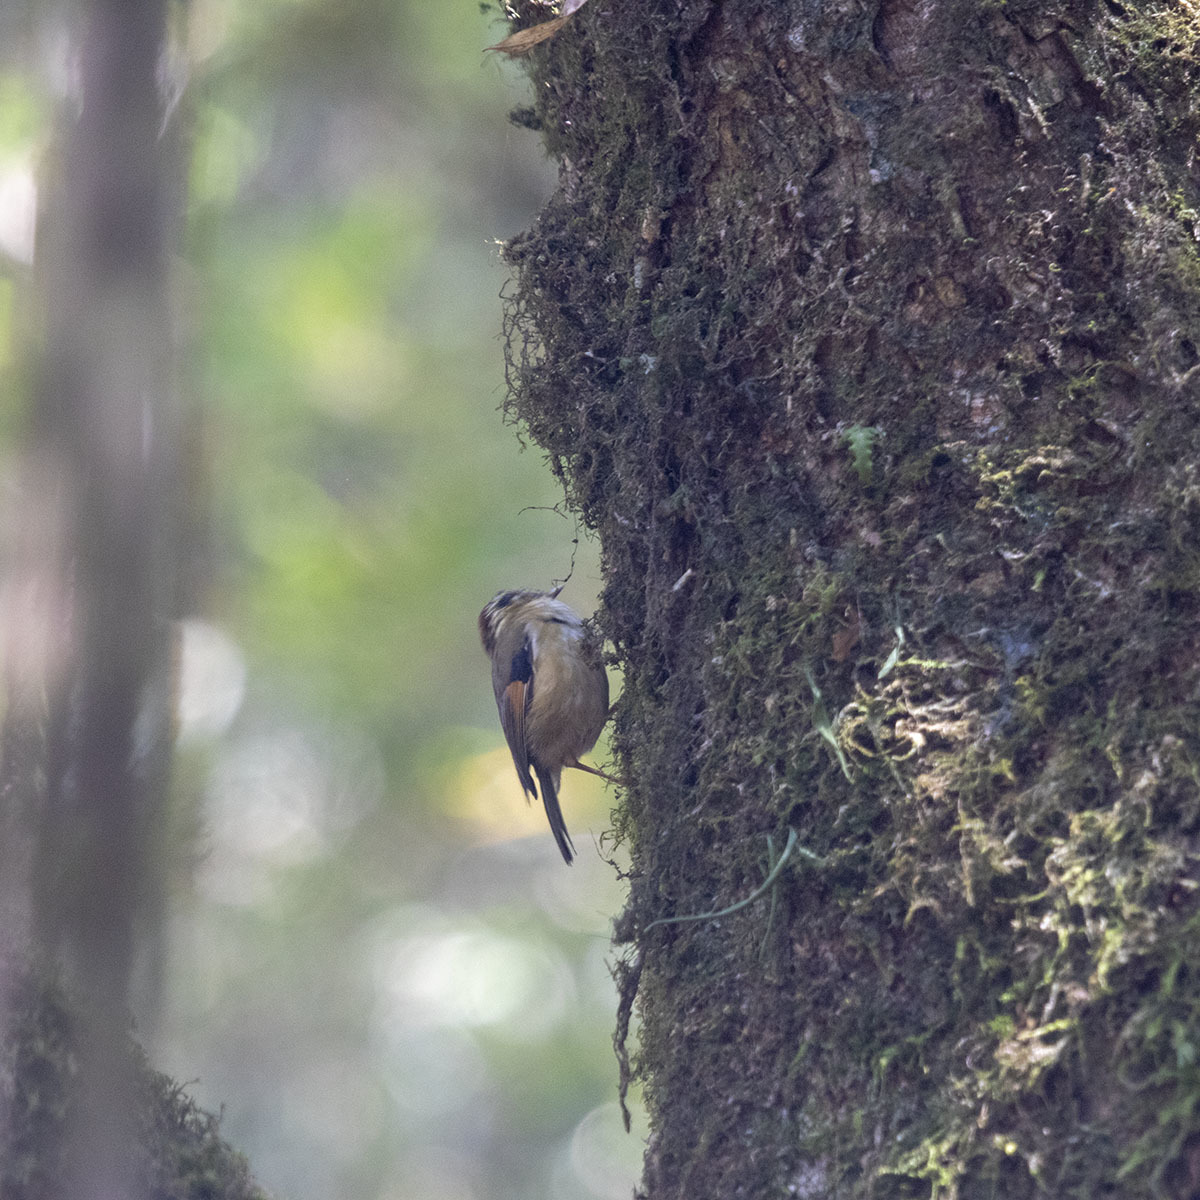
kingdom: Animalia
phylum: Chordata
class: Aves
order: Passeriformes
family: Pellorneidae
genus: Alcippe
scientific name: Alcippe castaneceps
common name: Rufous-winged fulvetta
